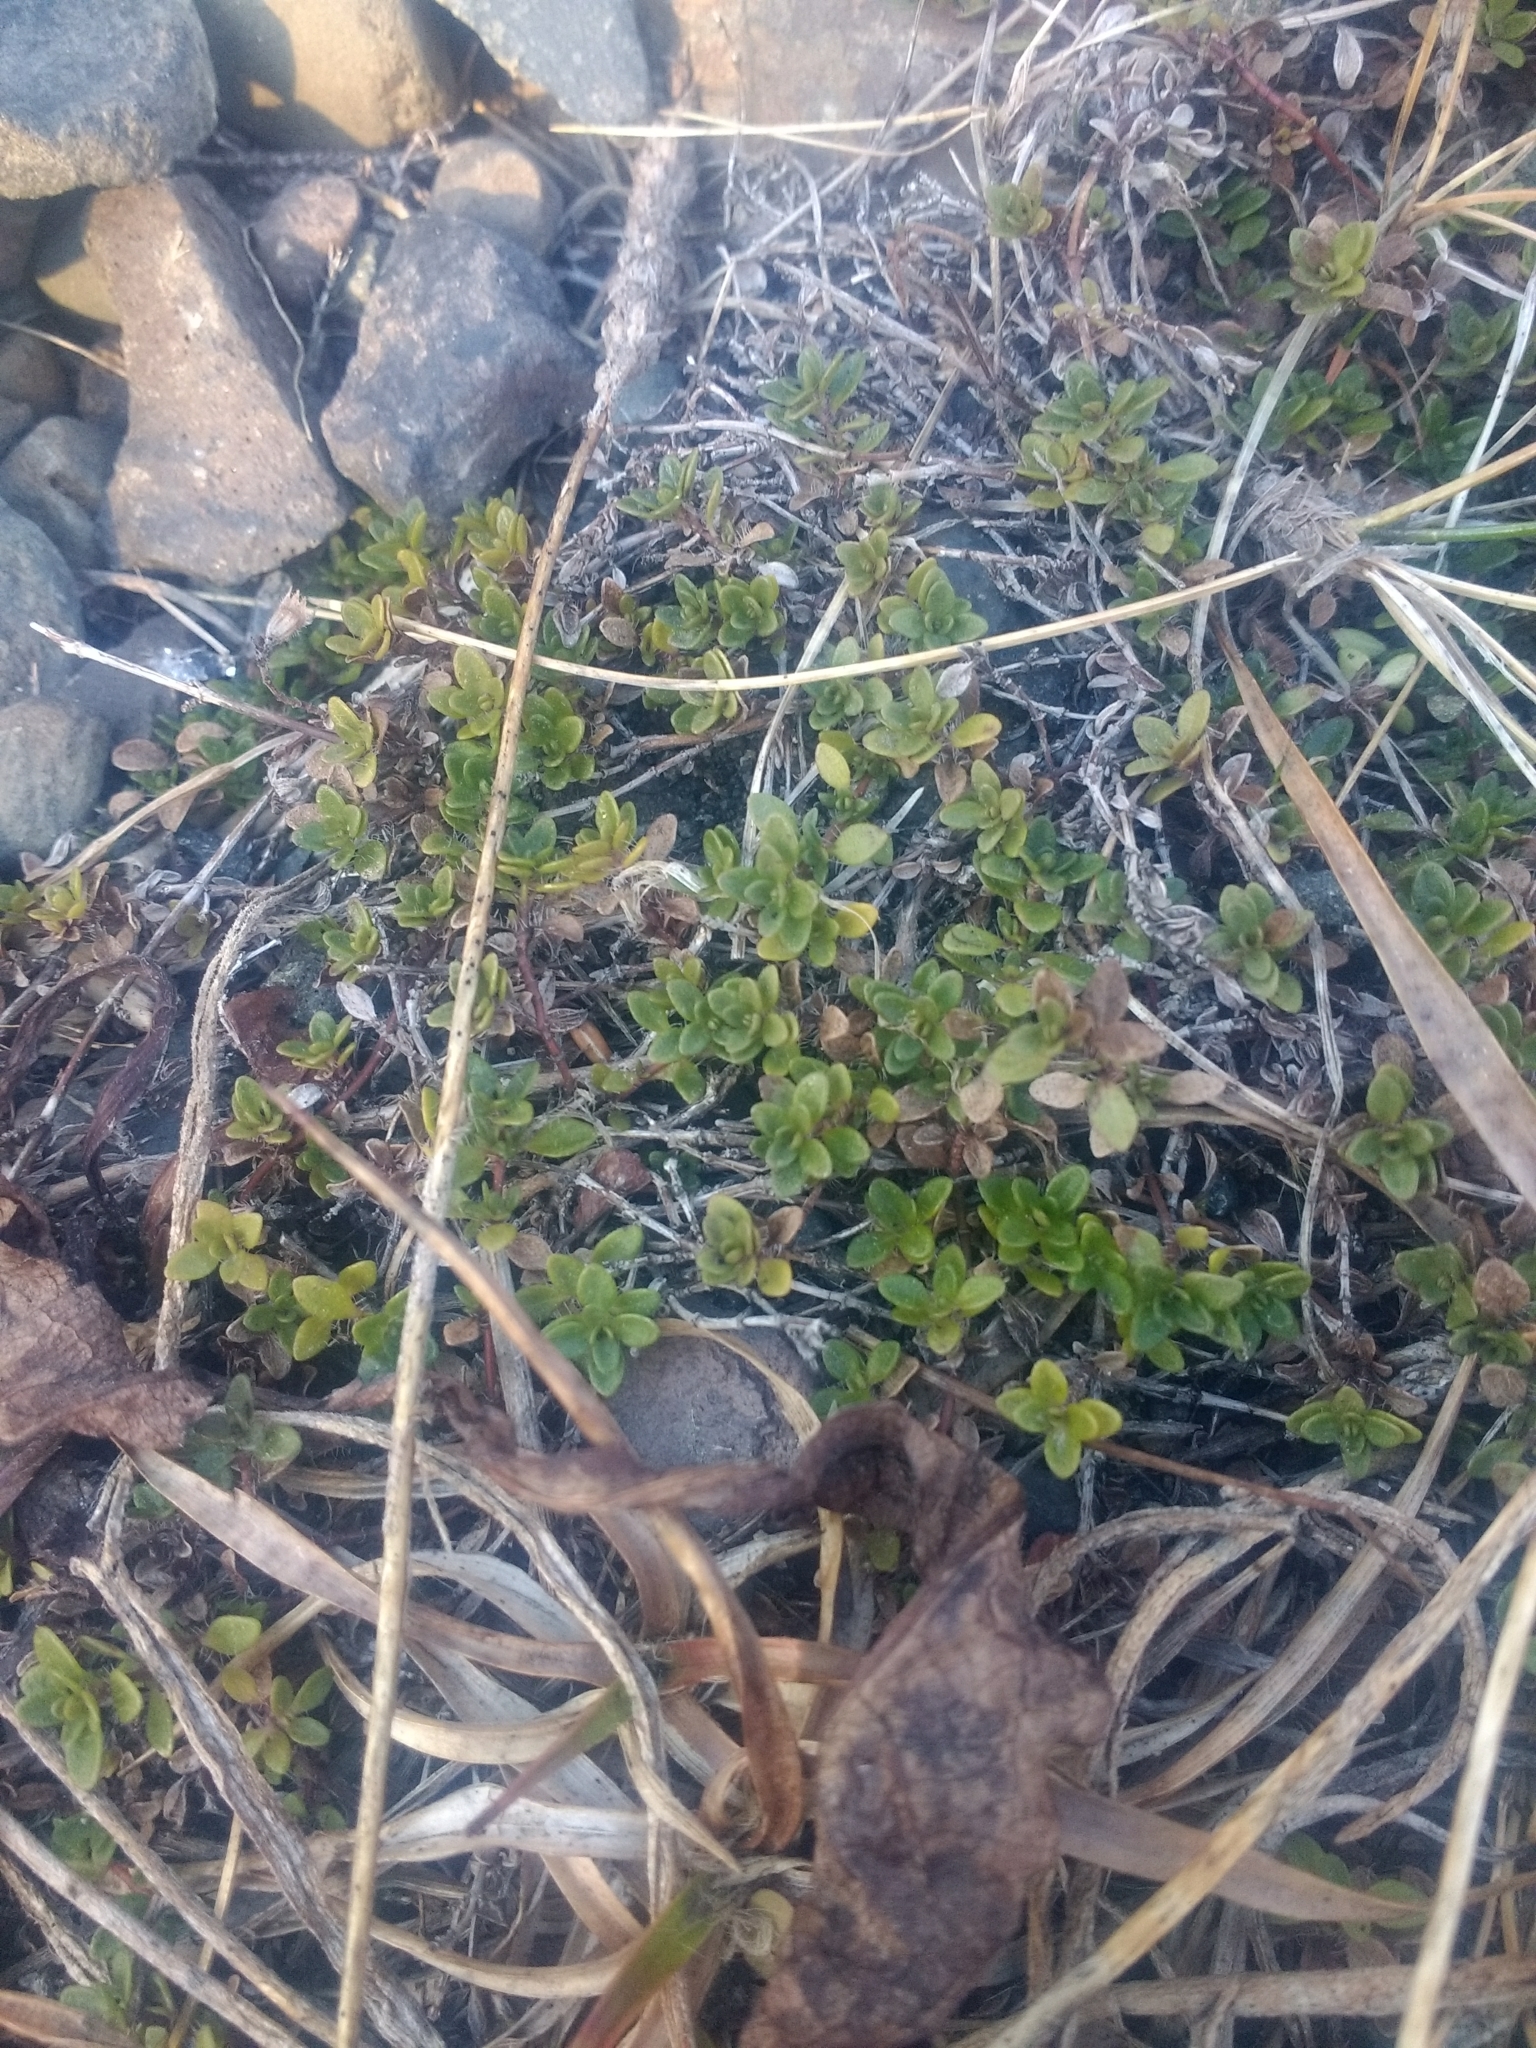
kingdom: Plantae
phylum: Tracheophyta
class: Magnoliopsida
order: Lamiales
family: Lamiaceae
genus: Thymus
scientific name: Thymus praecox
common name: Wild thyme
